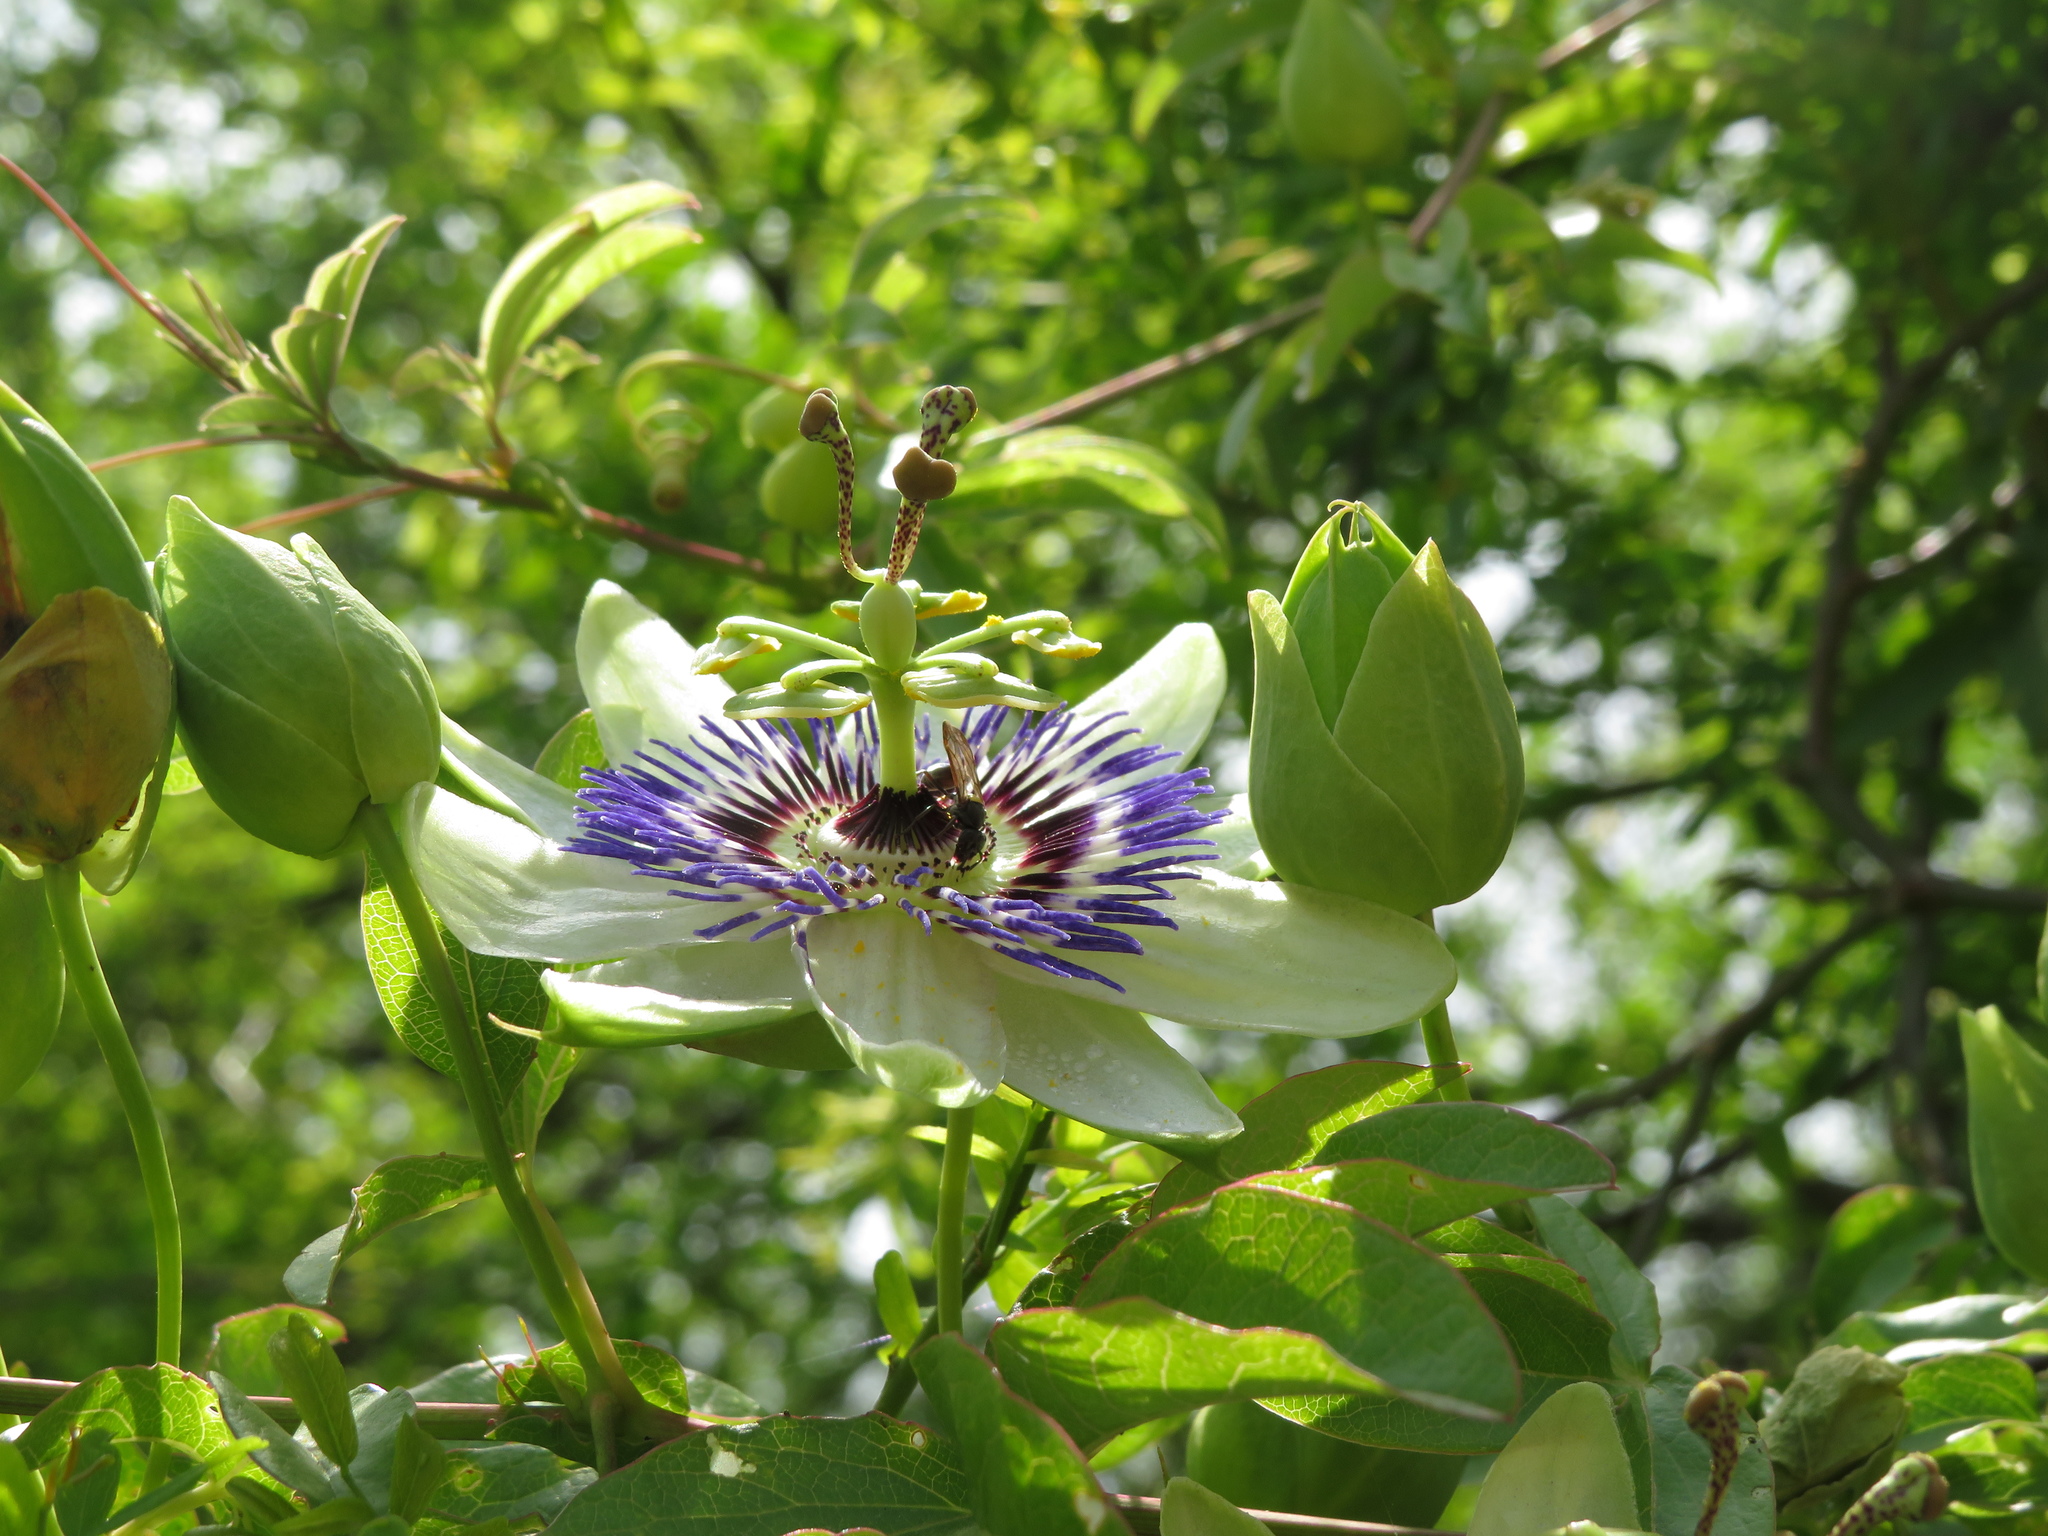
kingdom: Plantae
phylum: Tracheophyta
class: Magnoliopsida
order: Malpighiales
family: Passifloraceae
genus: Passiflora
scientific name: Passiflora caerulea
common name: Blue passionflower
